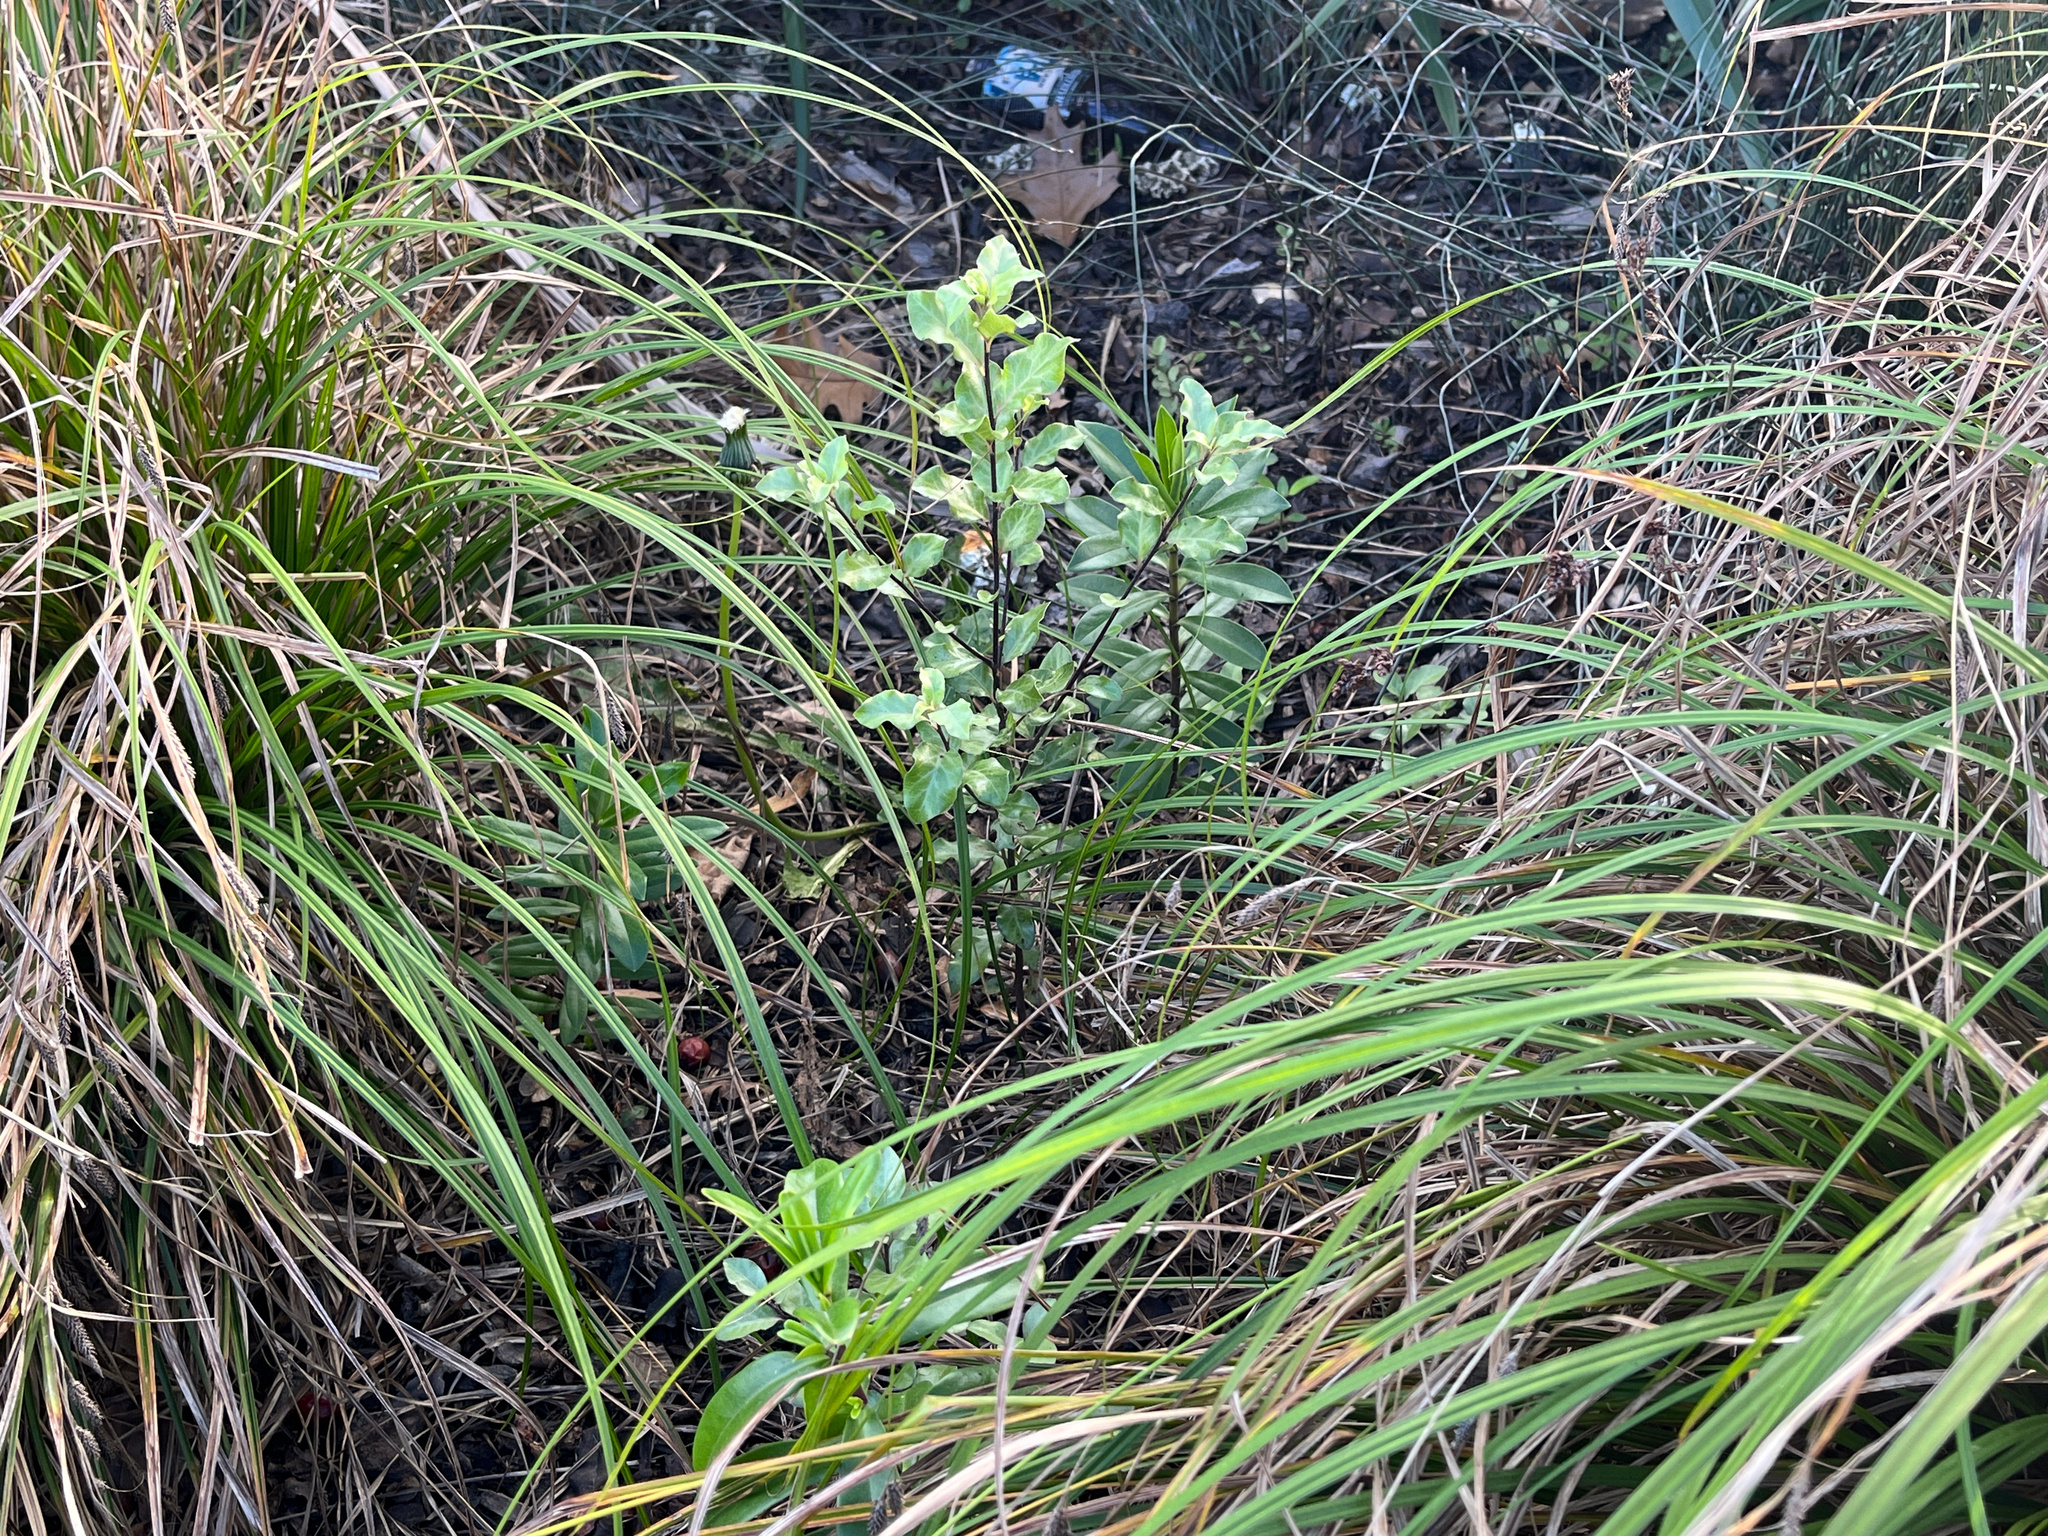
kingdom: Plantae
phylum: Tracheophyta
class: Magnoliopsida
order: Apiales
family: Pittosporaceae
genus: Pittosporum
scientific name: Pittosporum tenuifolium
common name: Kohuhu
